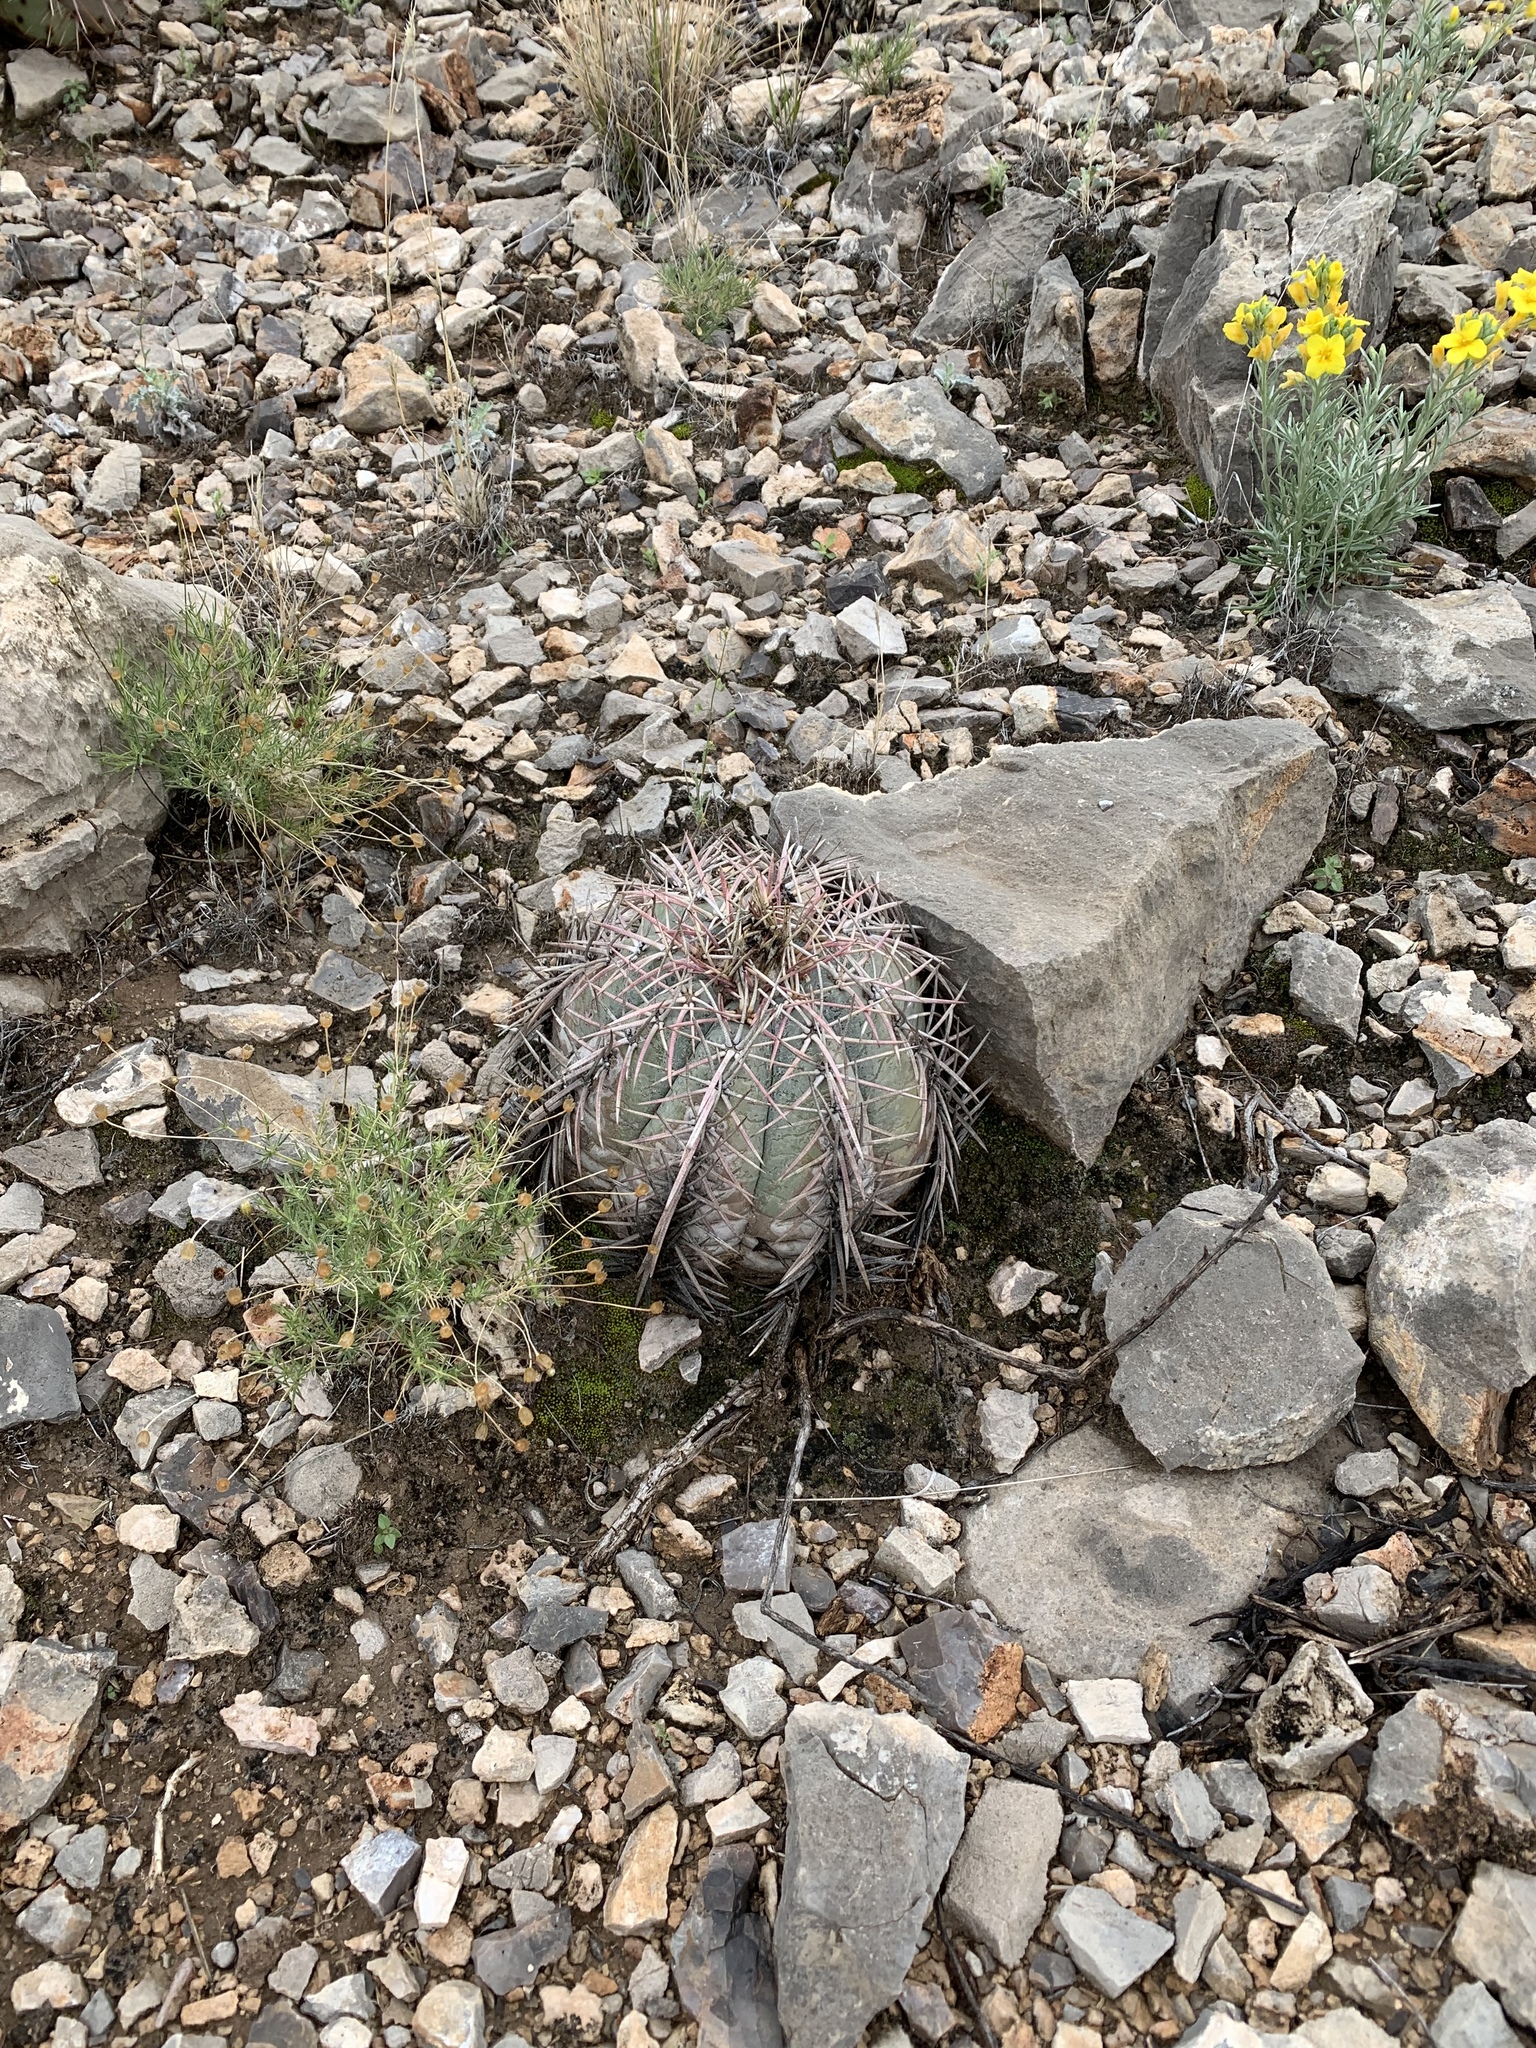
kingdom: Plantae
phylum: Tracheophyta
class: Magnoliopsida
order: Caryophyllales
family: Cactaceae
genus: Echinocactus
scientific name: Echinocactus horizonthalonius
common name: Devilshead
